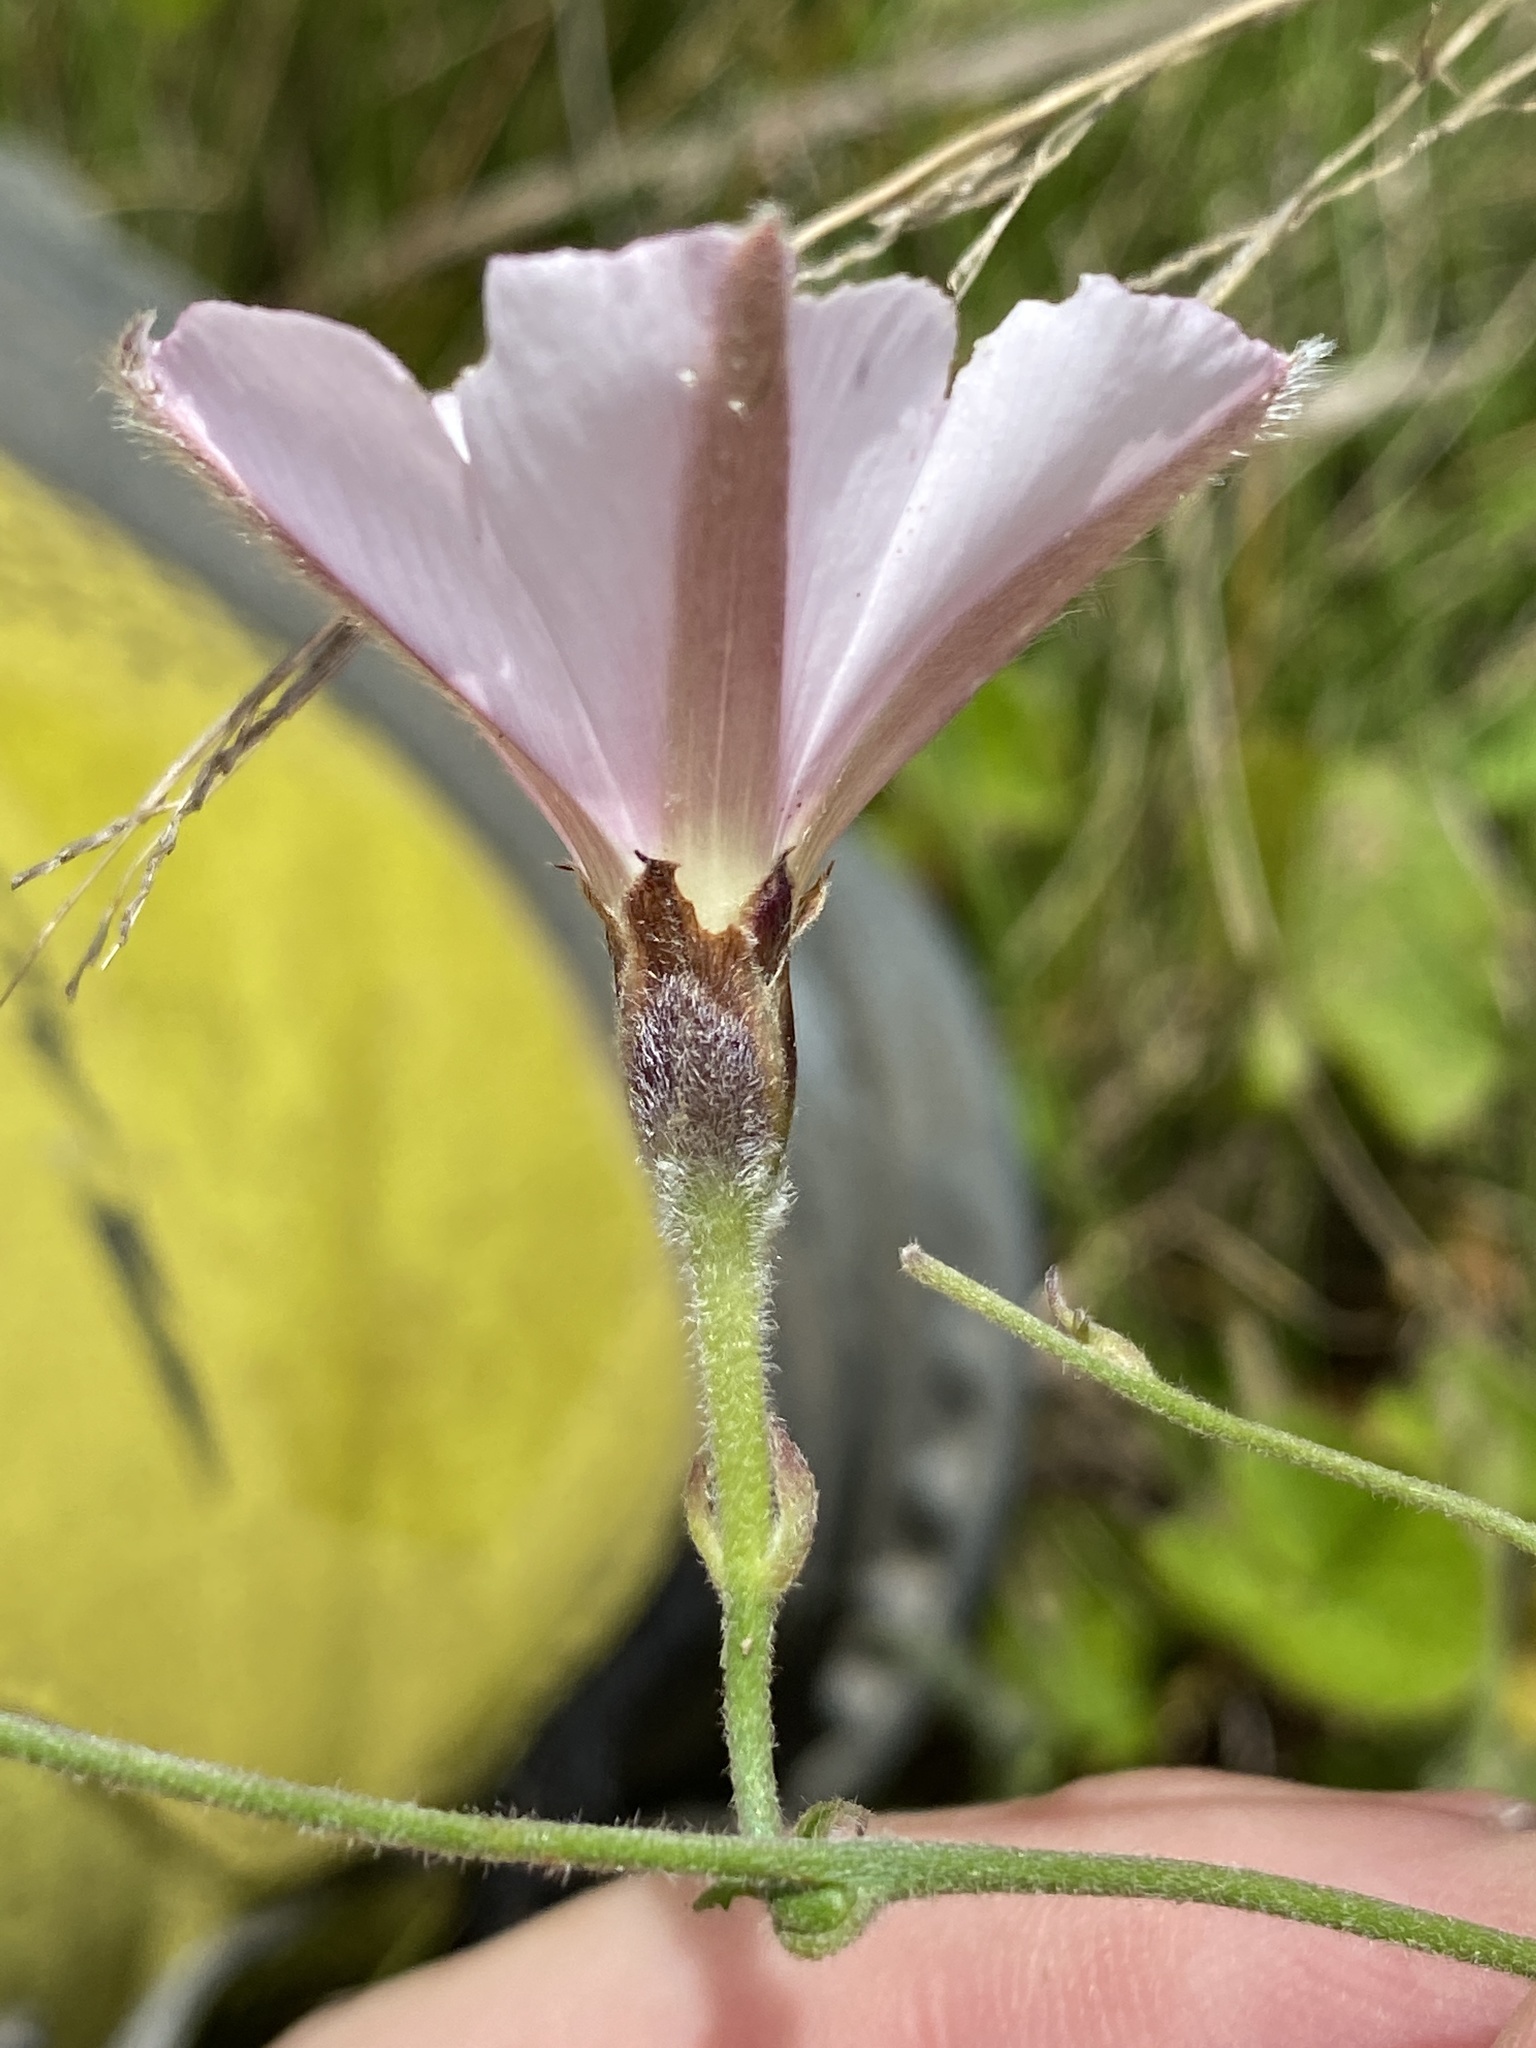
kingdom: Plantae
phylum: Tracheophyta
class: Magnoliopsida
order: Solanales
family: Convolvulaceae
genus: Convolvulus
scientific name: Convolvulus capensis
